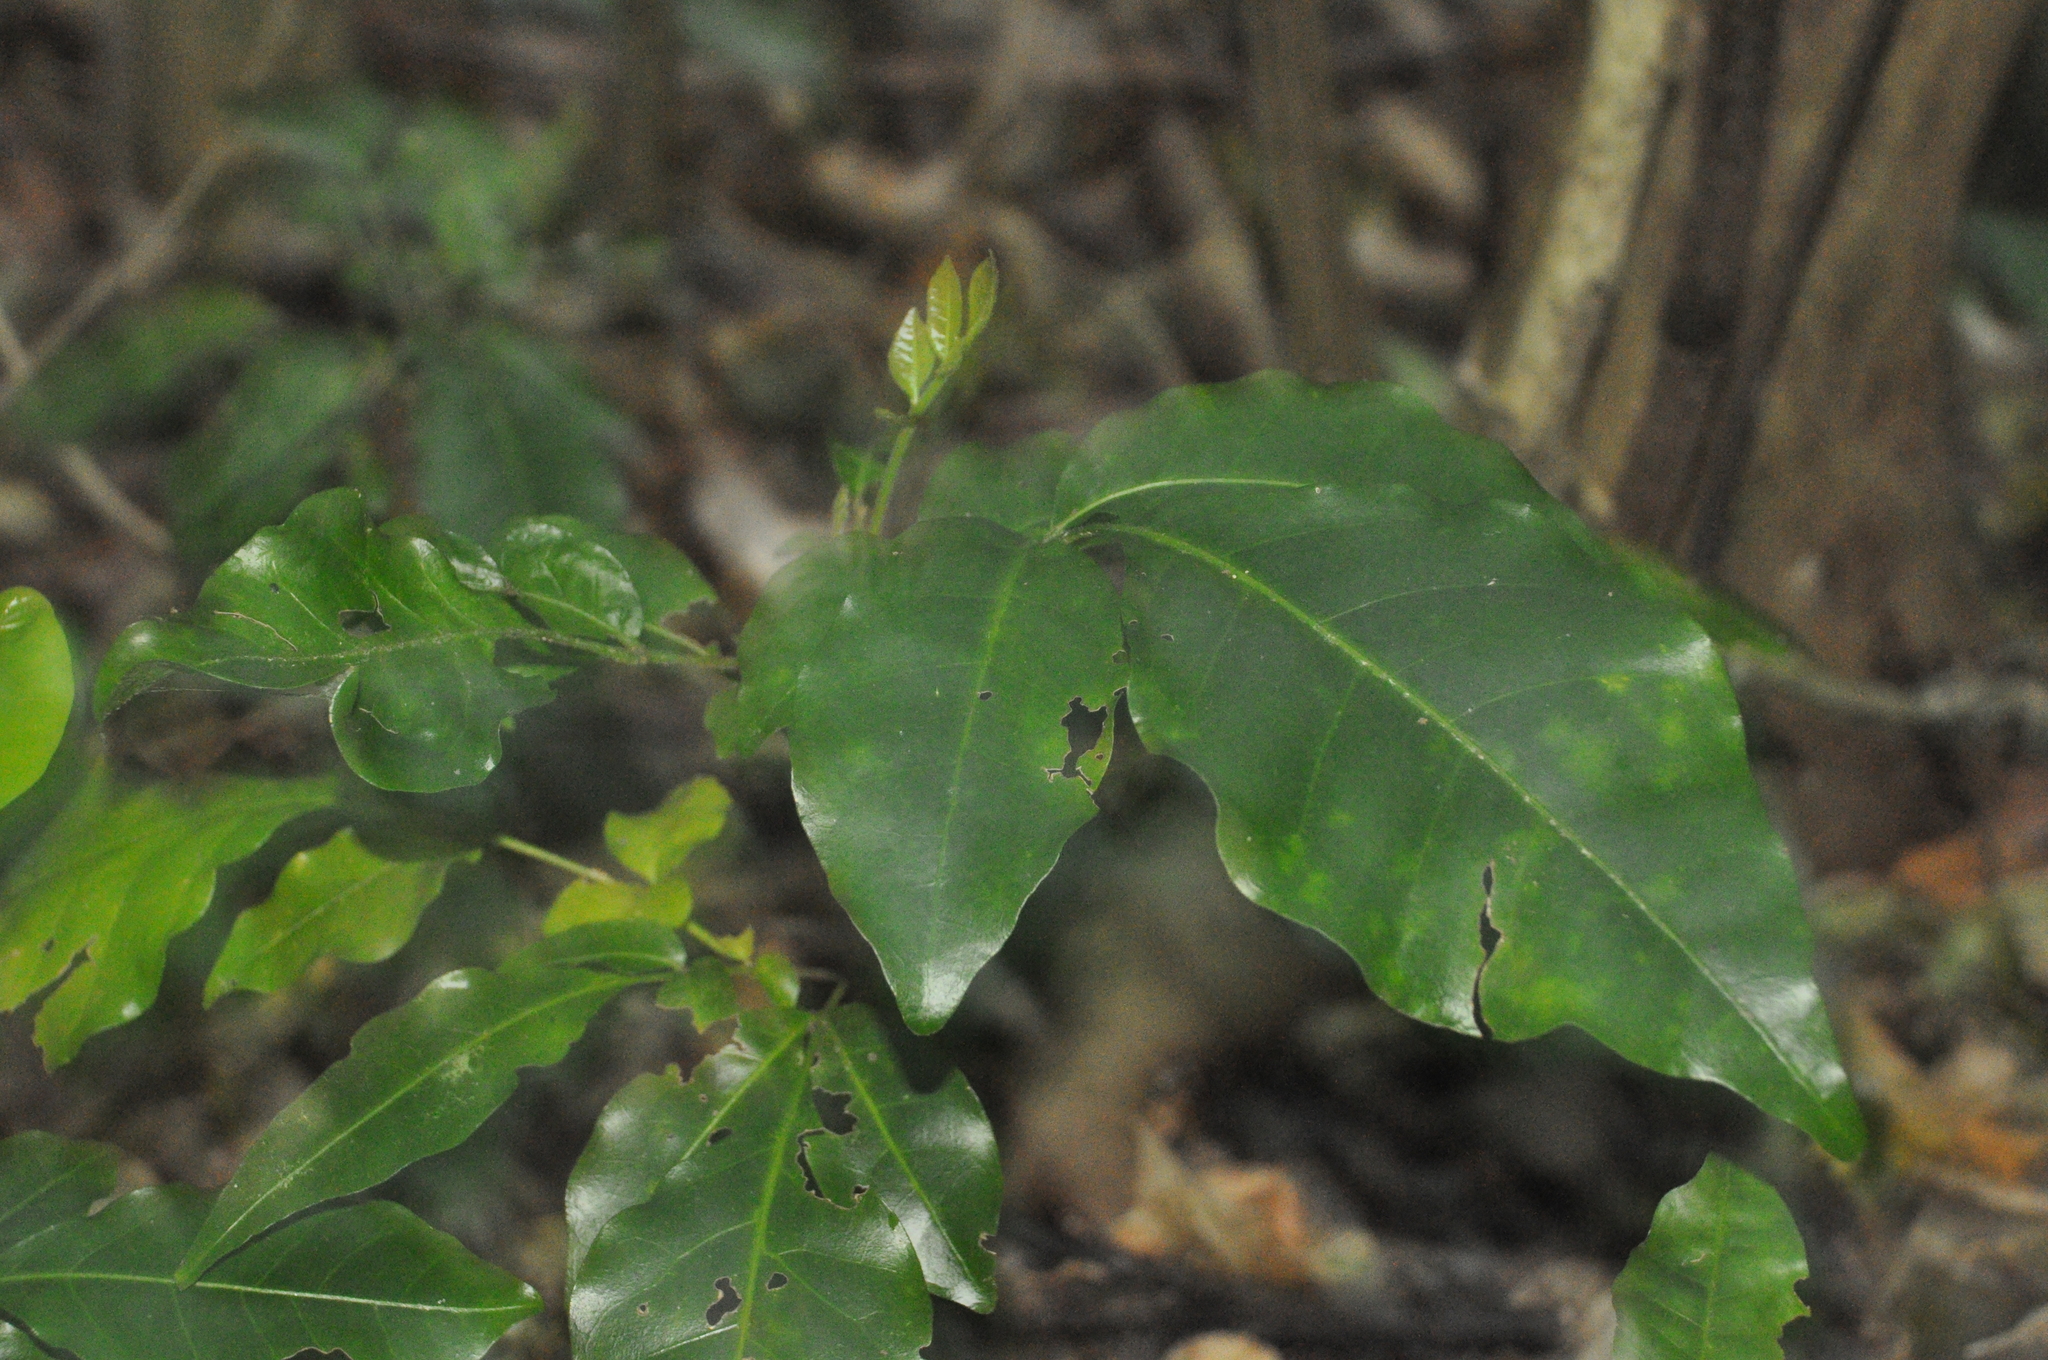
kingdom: Plantae
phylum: Tracheophyta
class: Magnoliopsida
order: Sapindales
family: Meliaceae
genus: Didymocheton
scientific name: Didymocheton spectabilis
